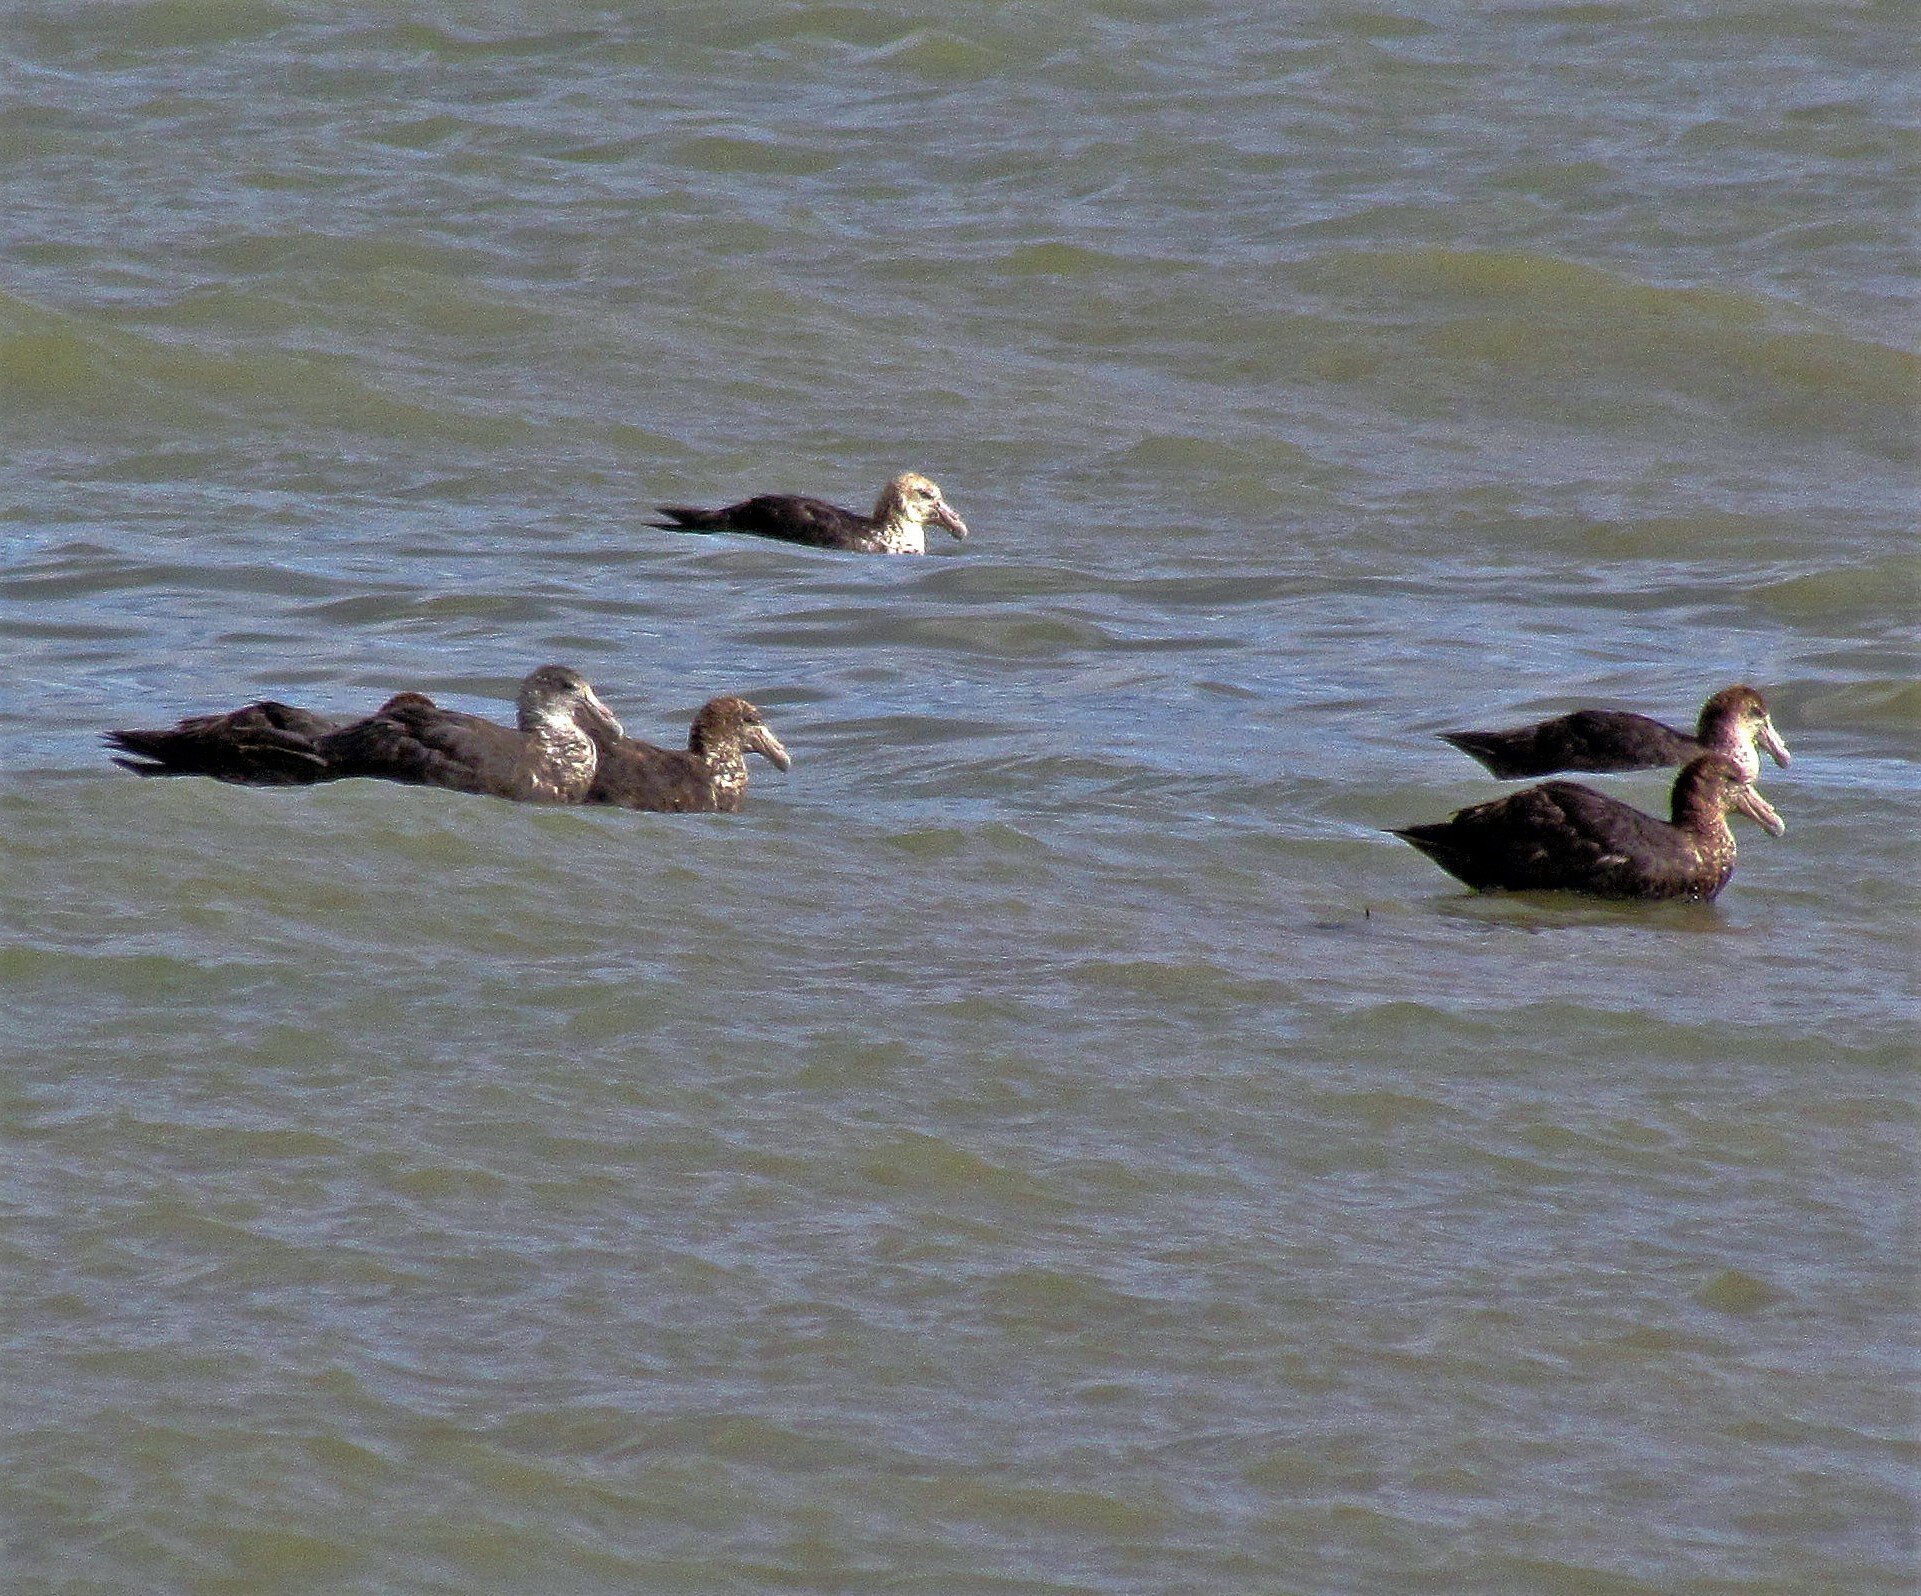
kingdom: Animalia
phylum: Chordata
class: Aves
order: Procellariiformes
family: Procellariidae
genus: Macronectes
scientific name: Macronectes giganteus
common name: Southern giant petrel
